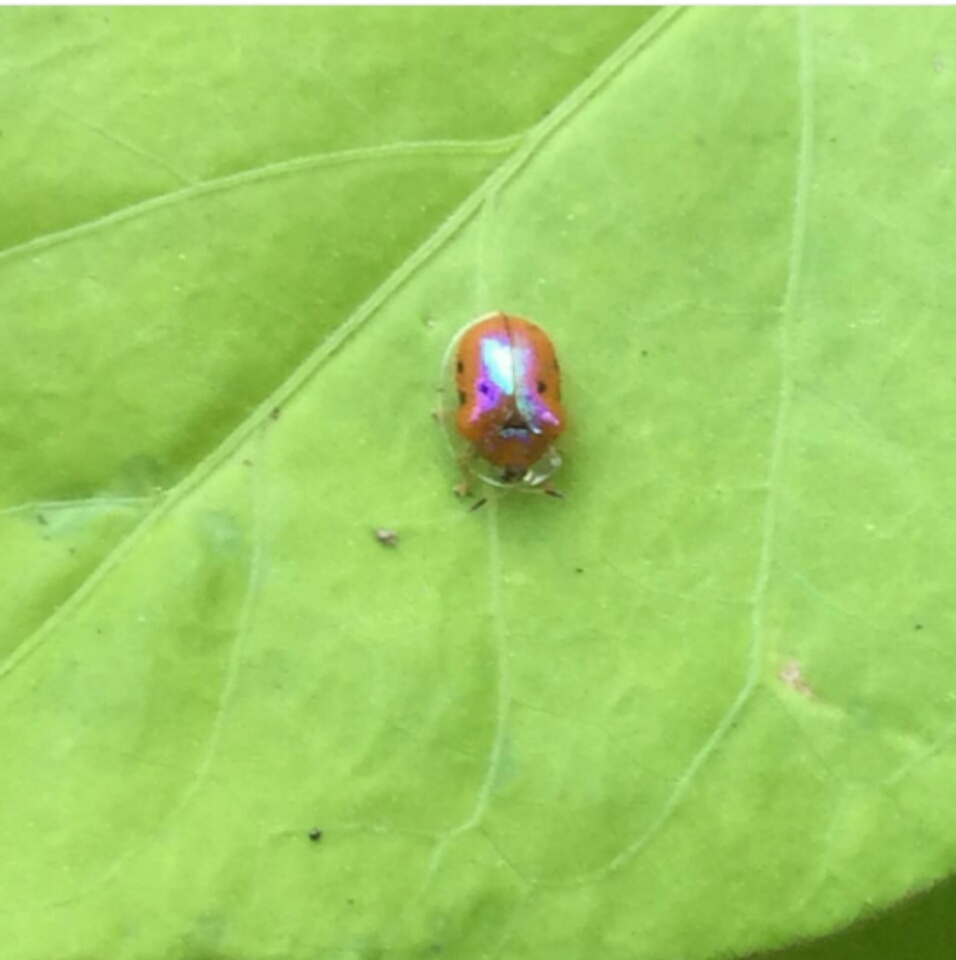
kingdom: Animalia
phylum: Arthropoda
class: Insecta
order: Coleoptera
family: Chrysomelidae
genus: Charidotella
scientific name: Charidotella sexpunctata
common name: Golden tortoise beetle
